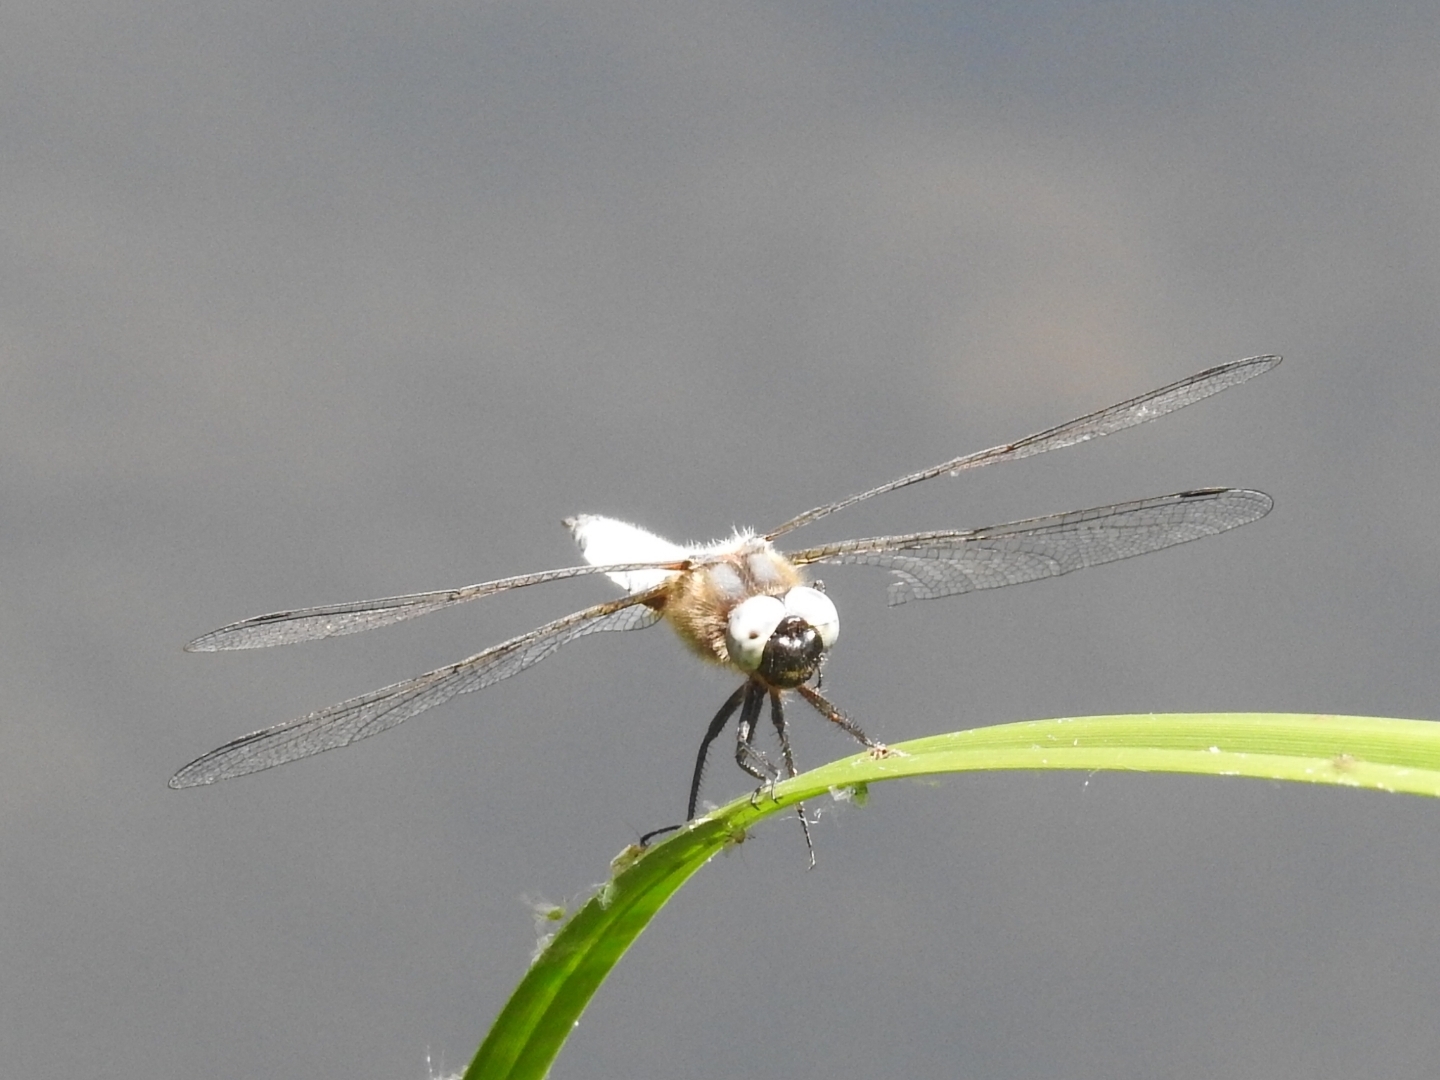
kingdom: Animalia
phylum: Arthropoda
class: Insecta
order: Odonata
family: Libellulidae
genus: Libellula
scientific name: Libellula fulva
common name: Blue chaser
